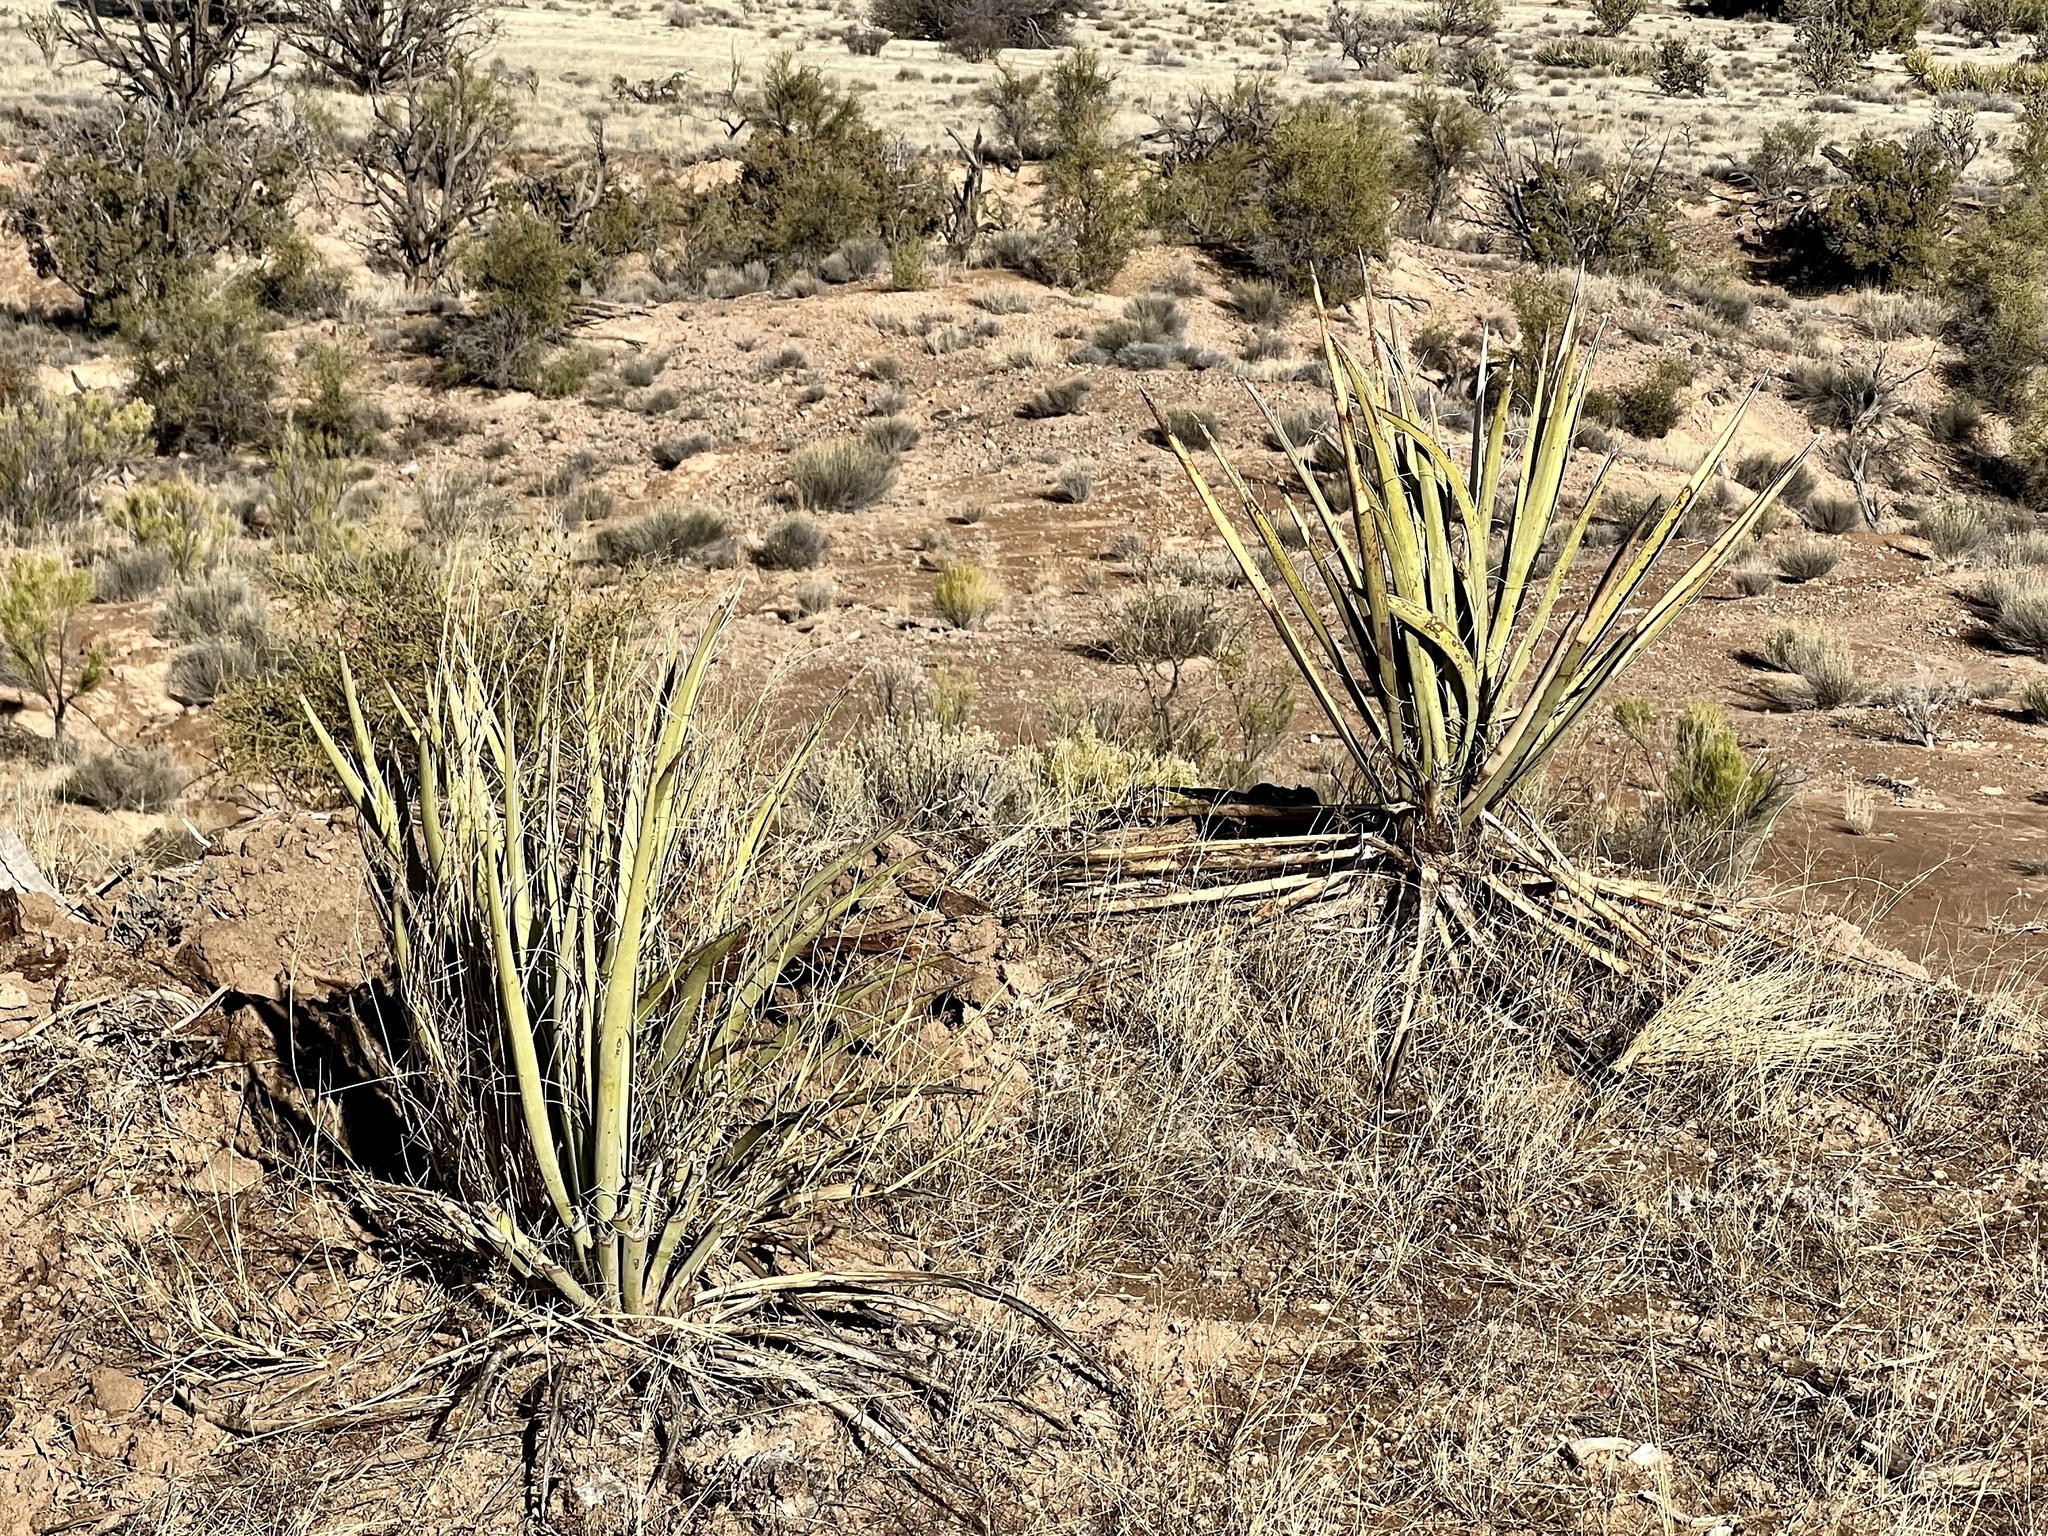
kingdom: Plantae
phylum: Tracheophyta
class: Liliopsida
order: Asparagales
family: Asparagaceae
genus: Yucca
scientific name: Yucca baccata
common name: Banana yucca
